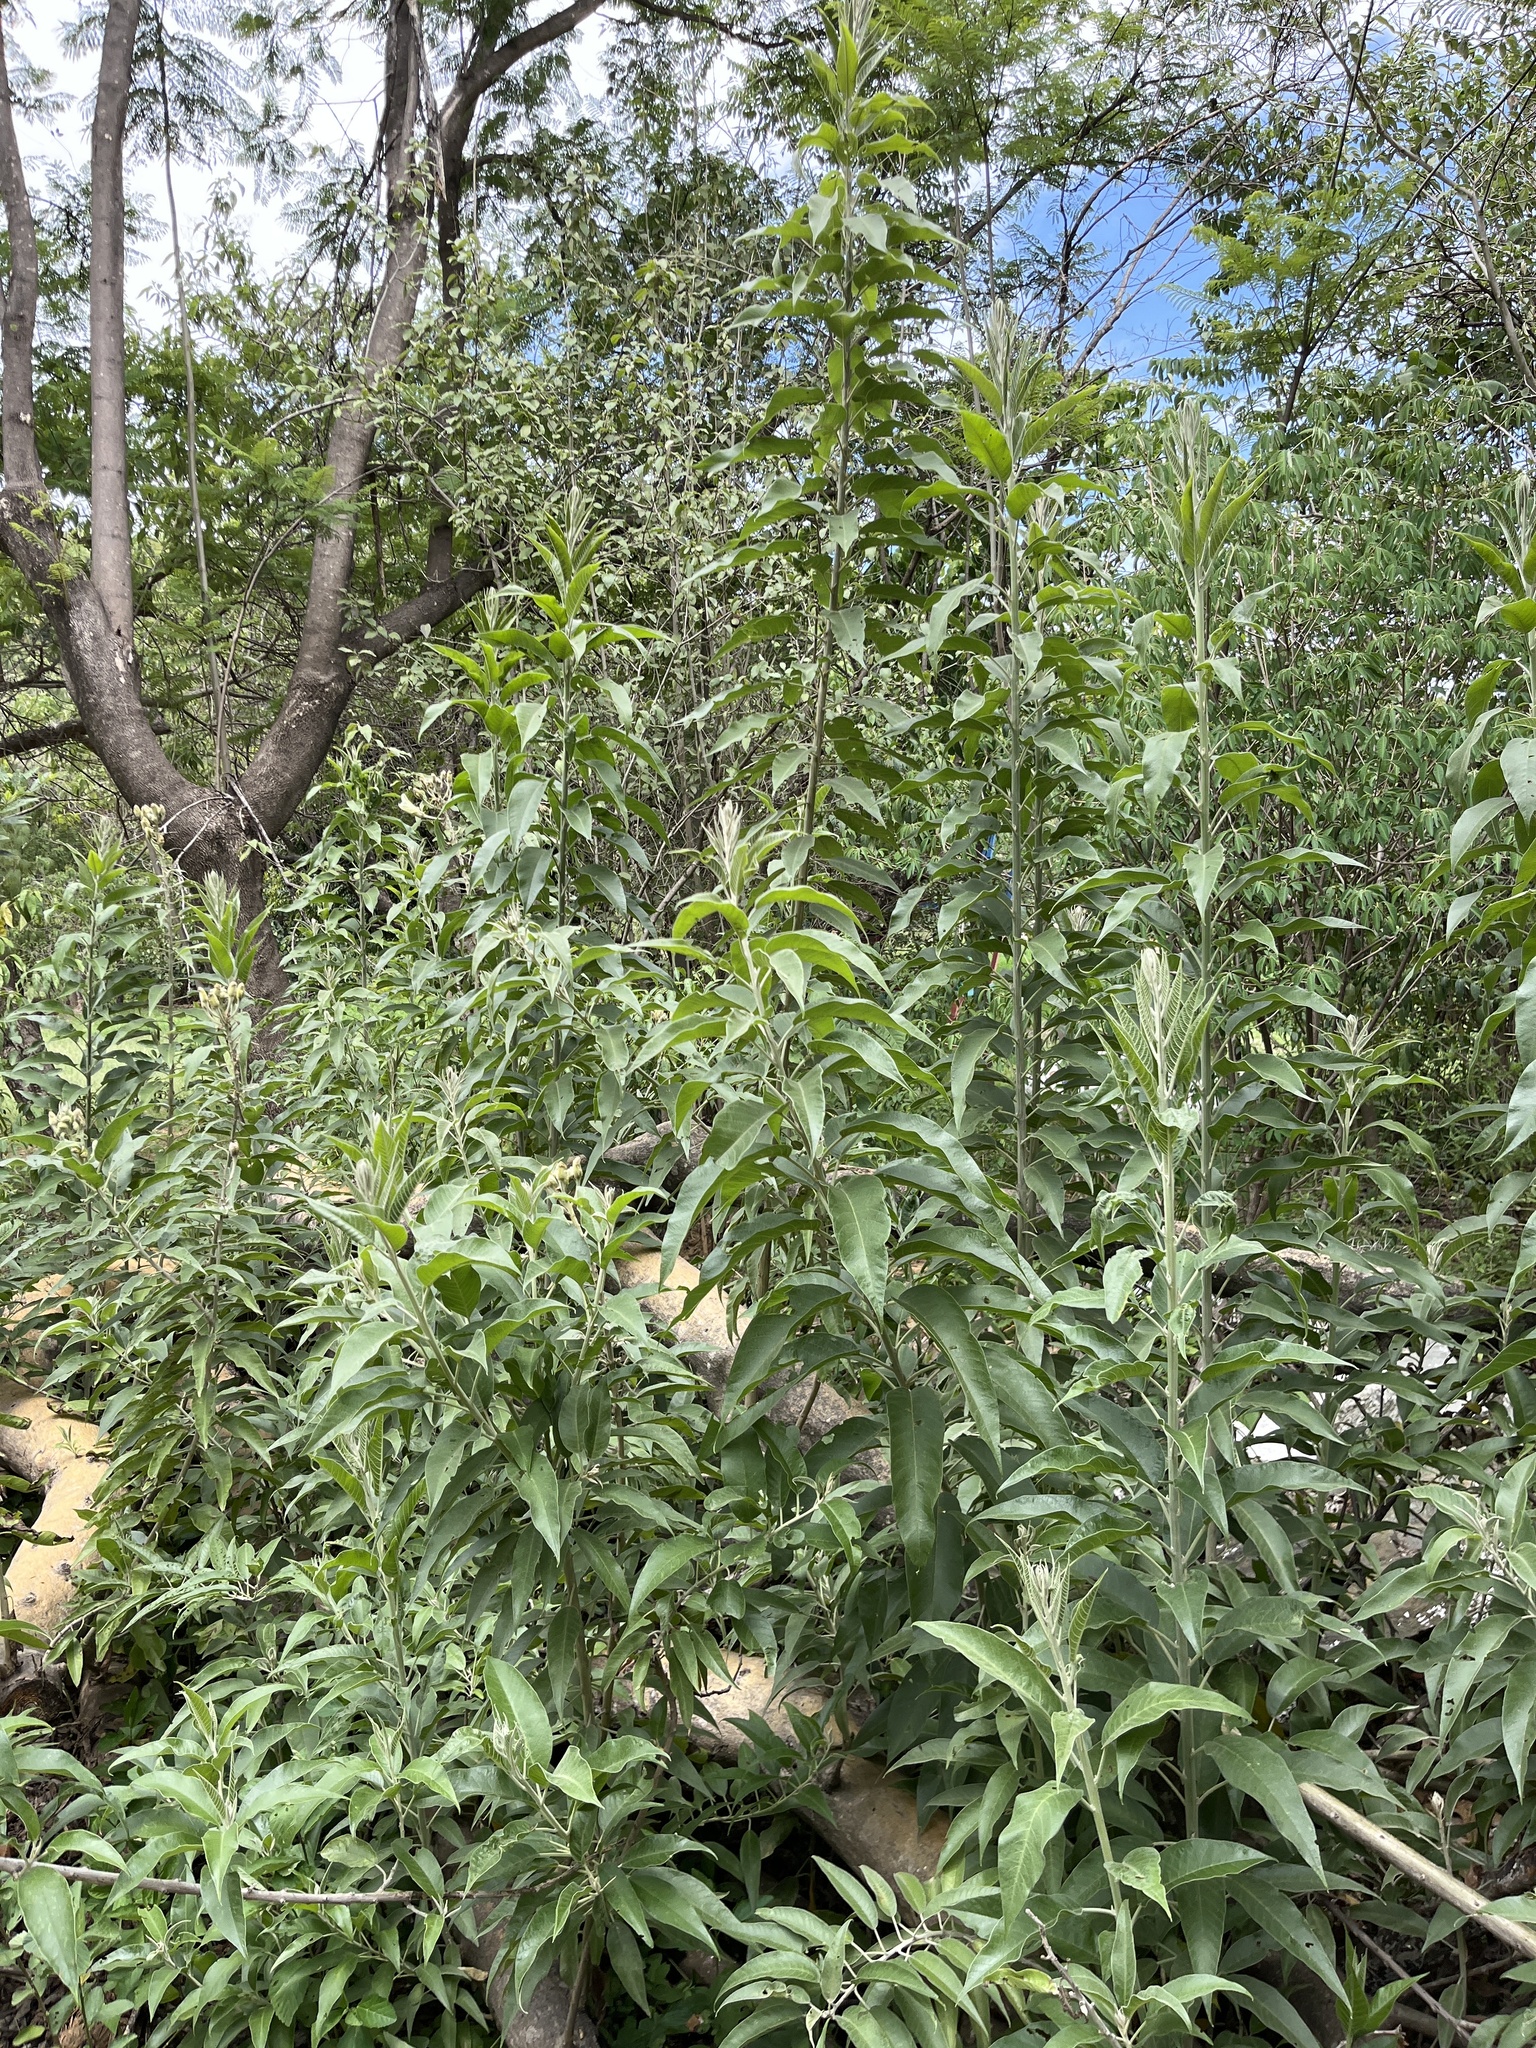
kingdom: Plantae
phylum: Tracheophyta
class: Magnoliopsida
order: Solanales
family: Convolvulaceae
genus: Ipomoea
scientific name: Ipomoea murucoides
